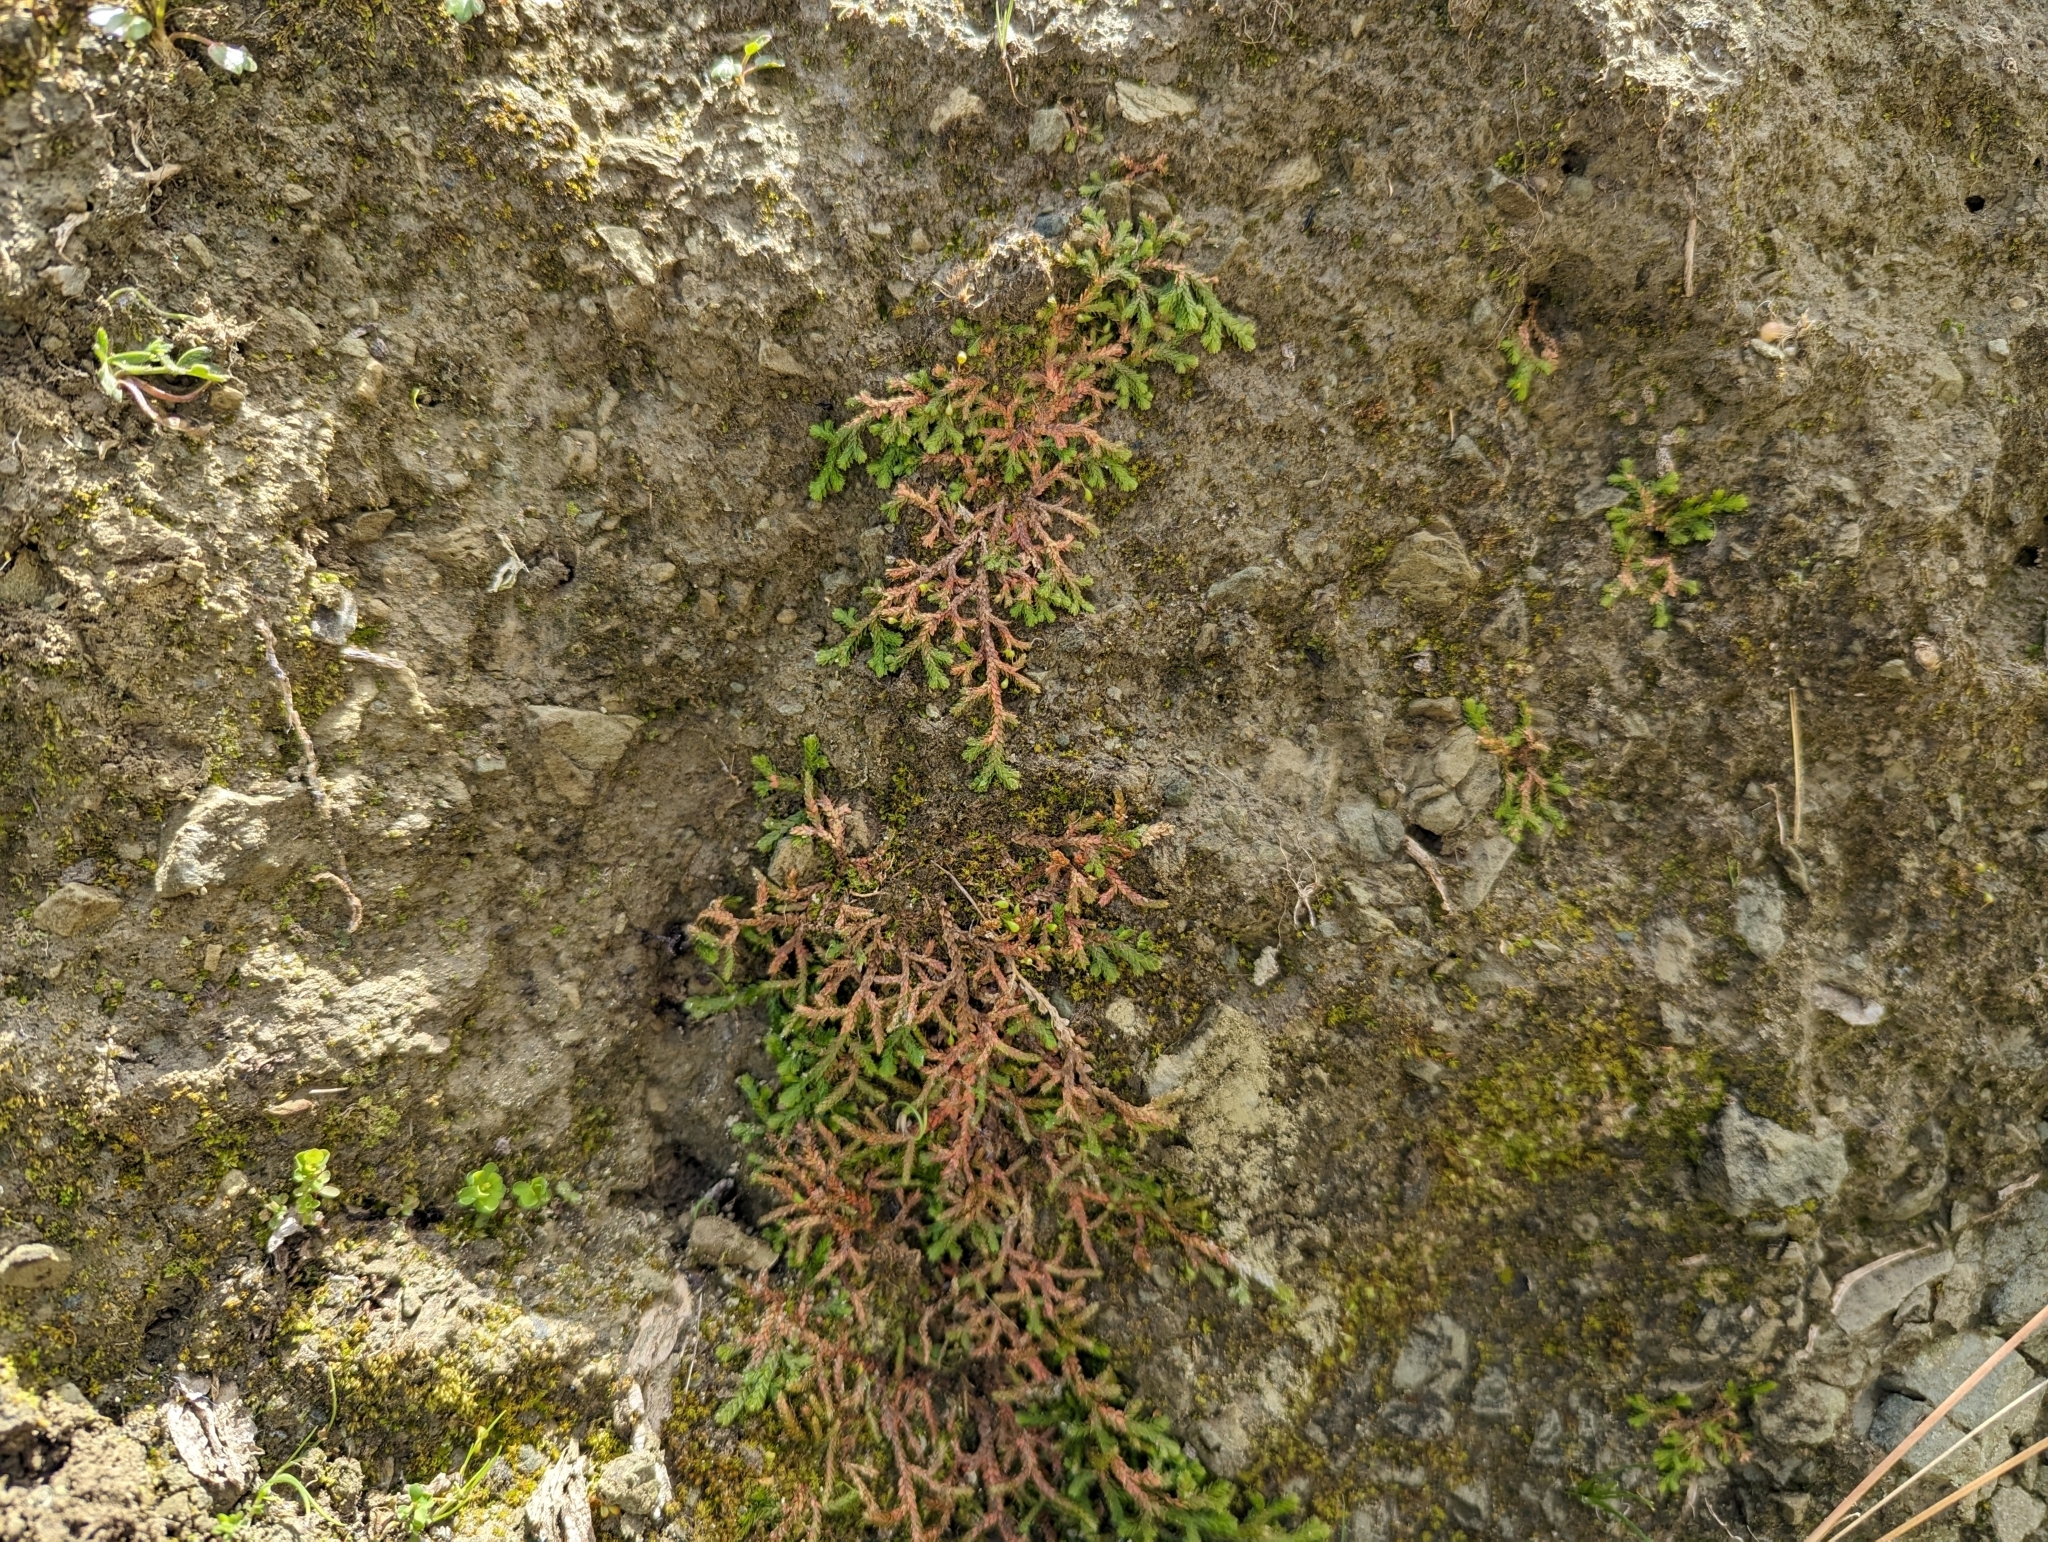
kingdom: Plantae
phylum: Tracheophyta
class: Lycopodiopsida
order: Selaginellales
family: Selaginellaceae
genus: Selaginella
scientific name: Selaginella denticulata
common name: Toothed-leaved clubmoss
